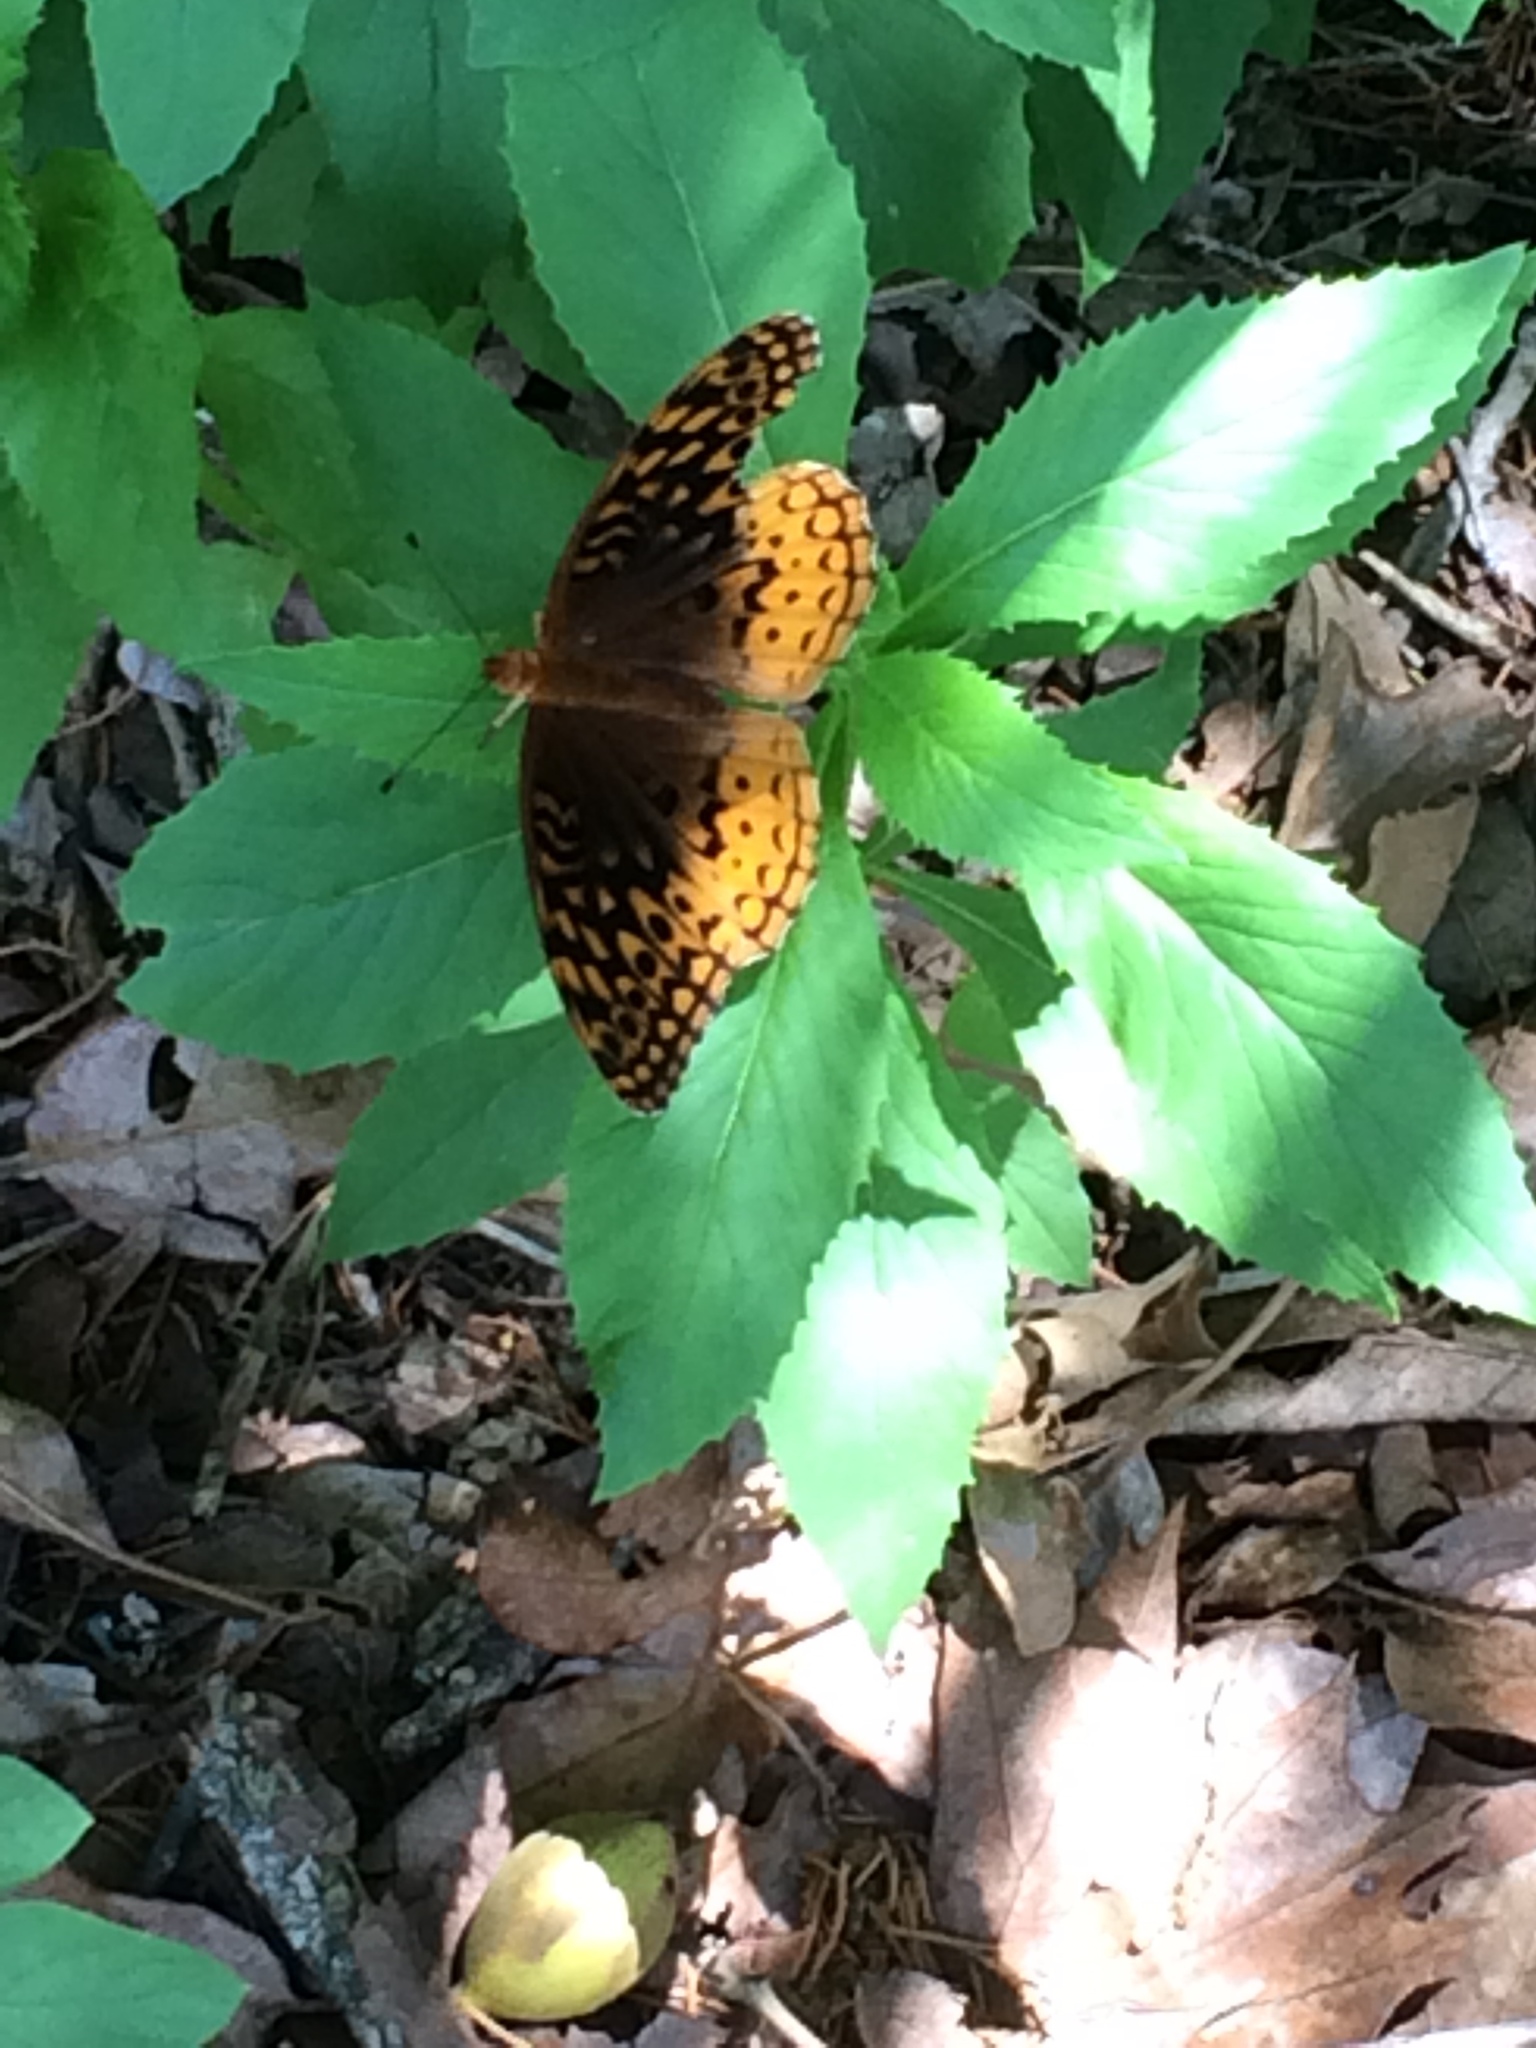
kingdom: Animalia
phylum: Arthropoda
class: Insecta
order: Lepidoptera
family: Nymphalidae
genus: Speyeria
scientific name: Speyeria cybele
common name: Great spangled fritillary
